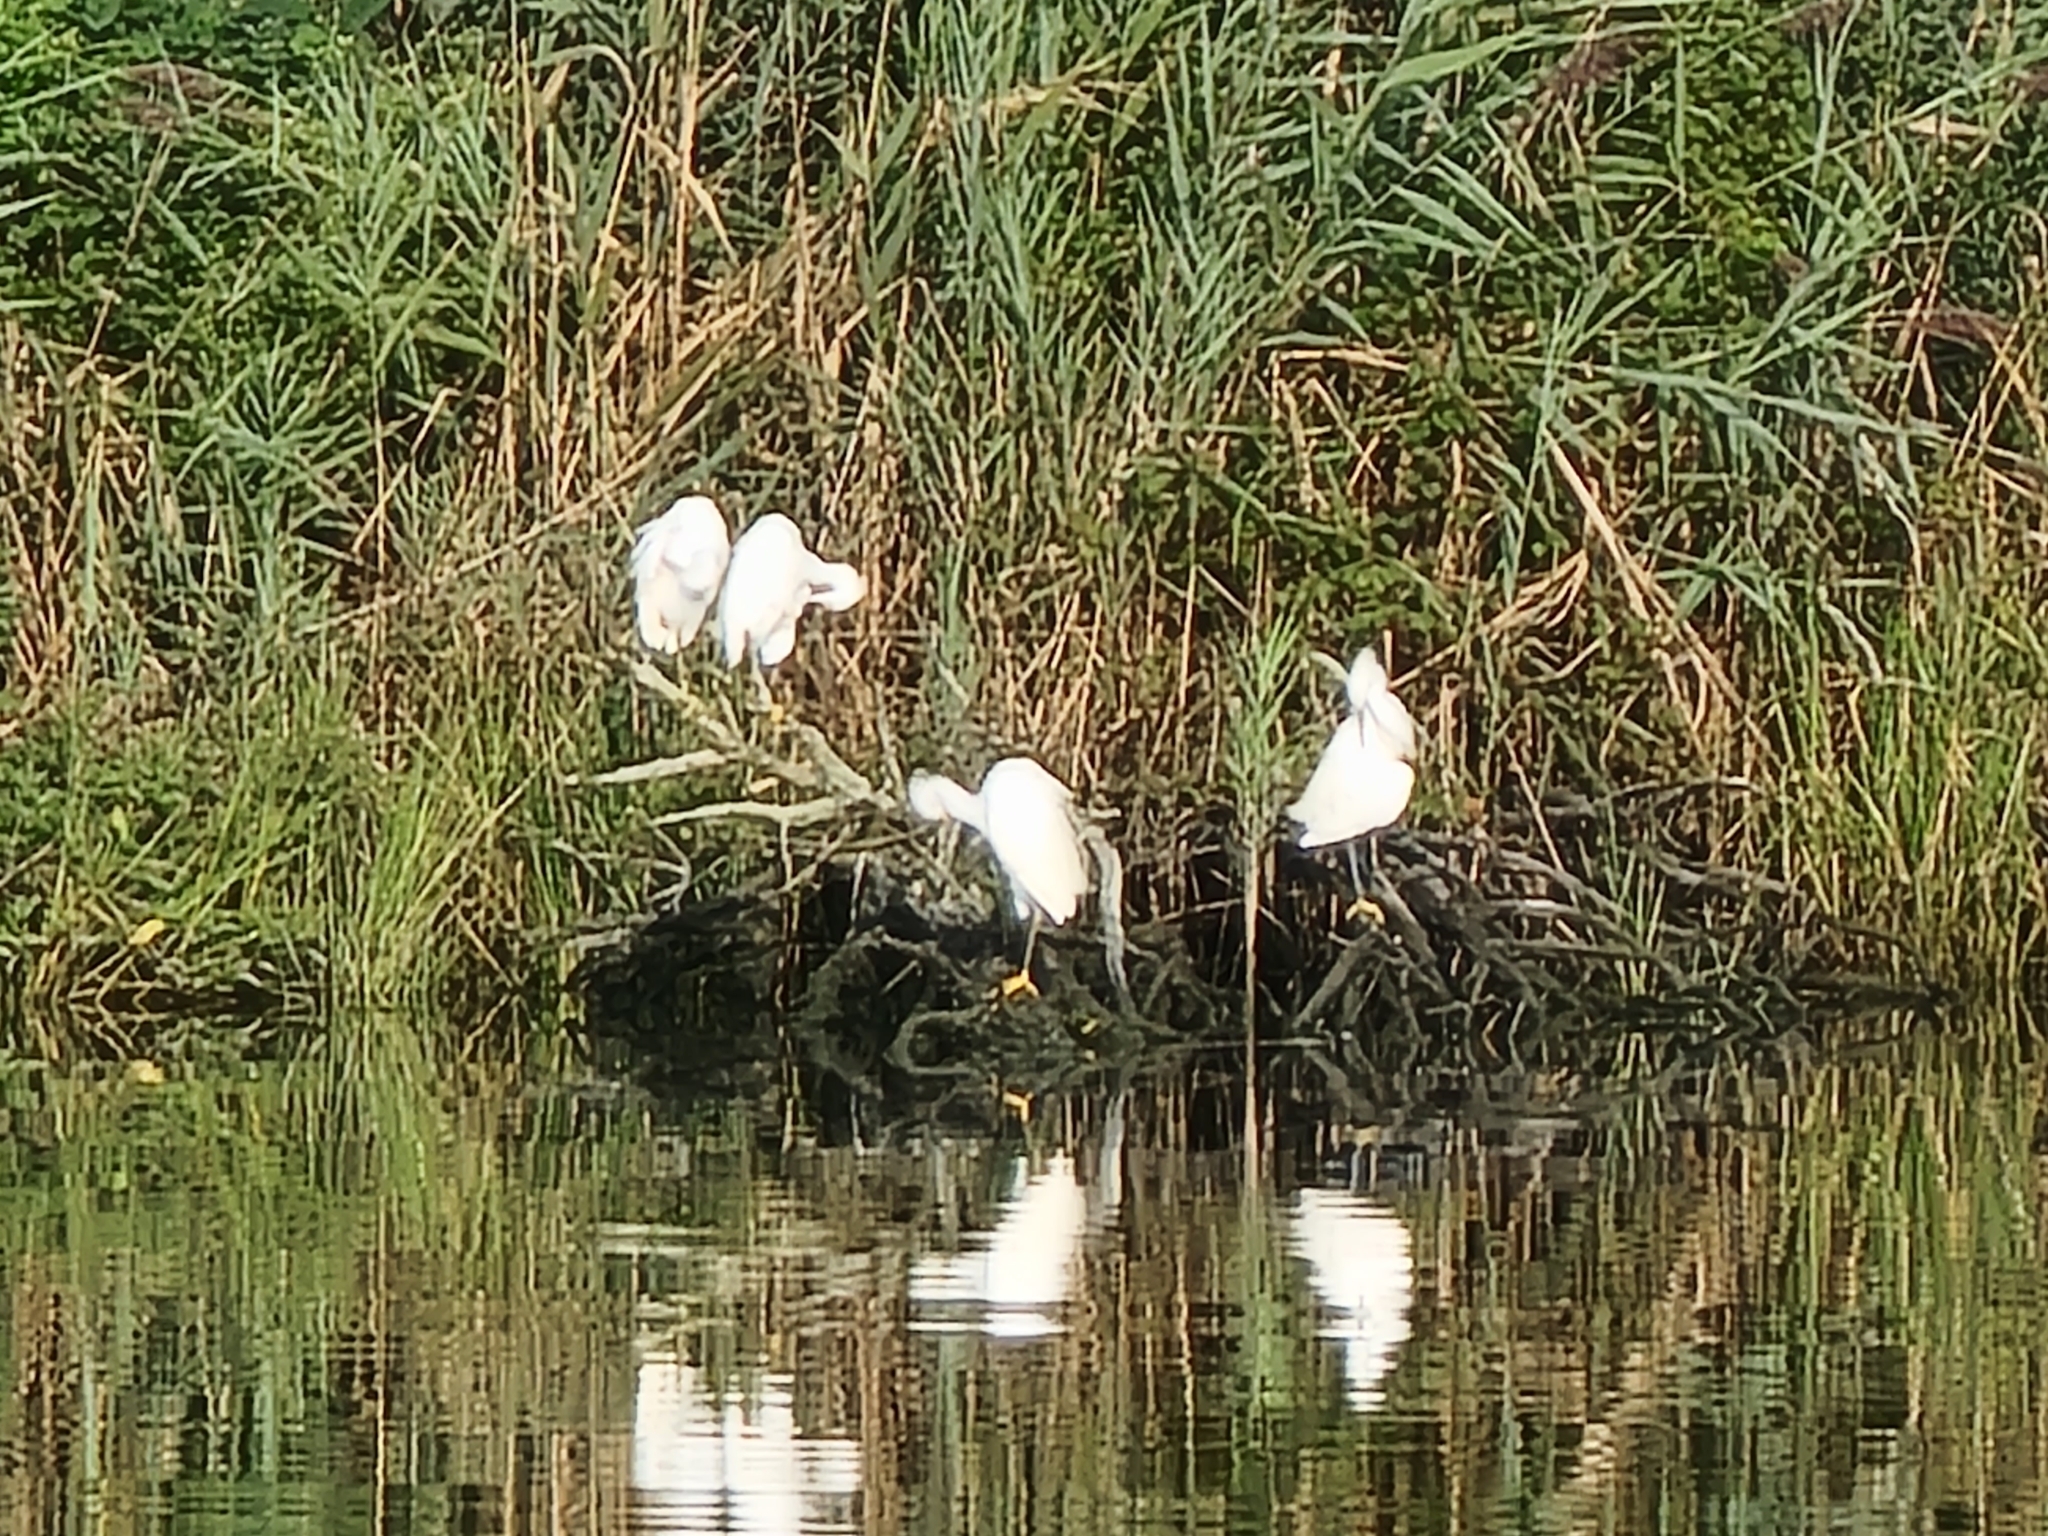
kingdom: Animalia
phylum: Chordata
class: Aves
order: Pelecaniformes
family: Ardeidae
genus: Egretta
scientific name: Egretta thula
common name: Snowy egret
